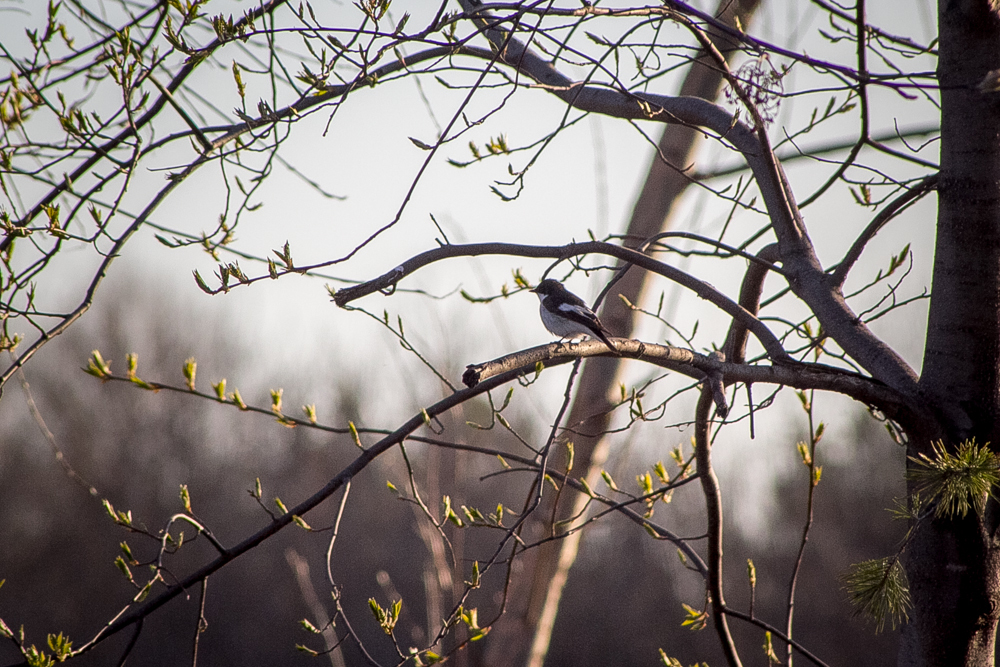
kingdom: Animalia
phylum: Chordata
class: Aves
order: Passeriformes
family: Muscicapidae
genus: Ficedula
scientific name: Ficedula hypoleuca
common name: European pied flycatcher
